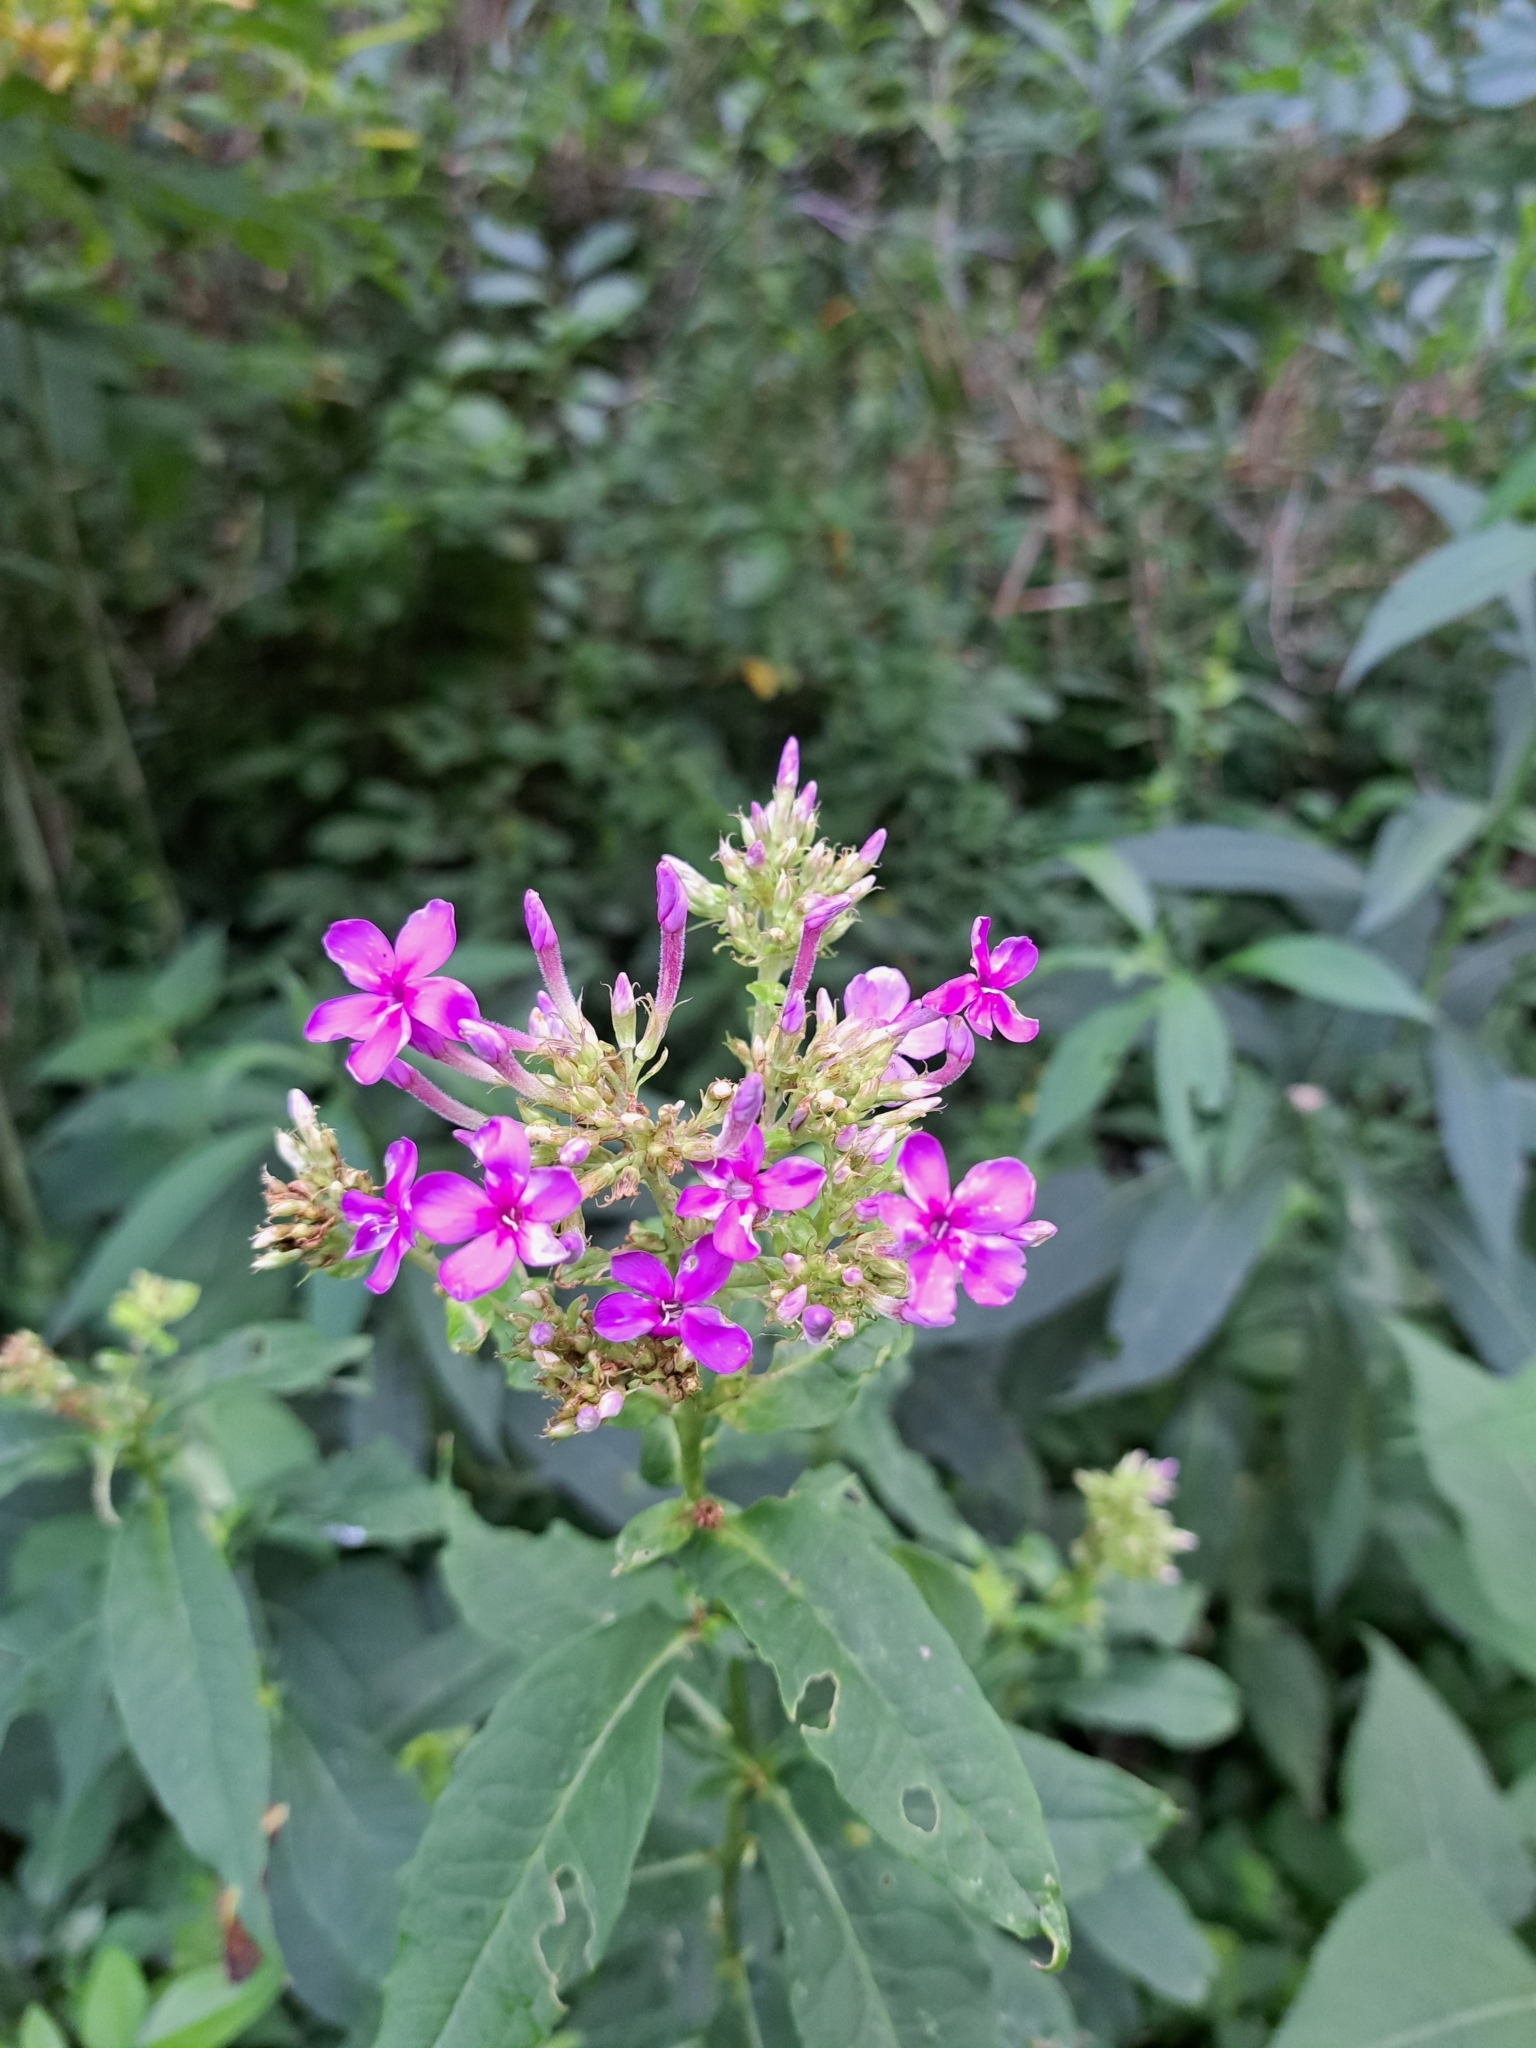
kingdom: Plantae
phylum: Tracheophyta
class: Magnoliopsida
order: Ericales
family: Polemoniaceae
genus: Phlox
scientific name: Phlox paniculata
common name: Fall phlox
